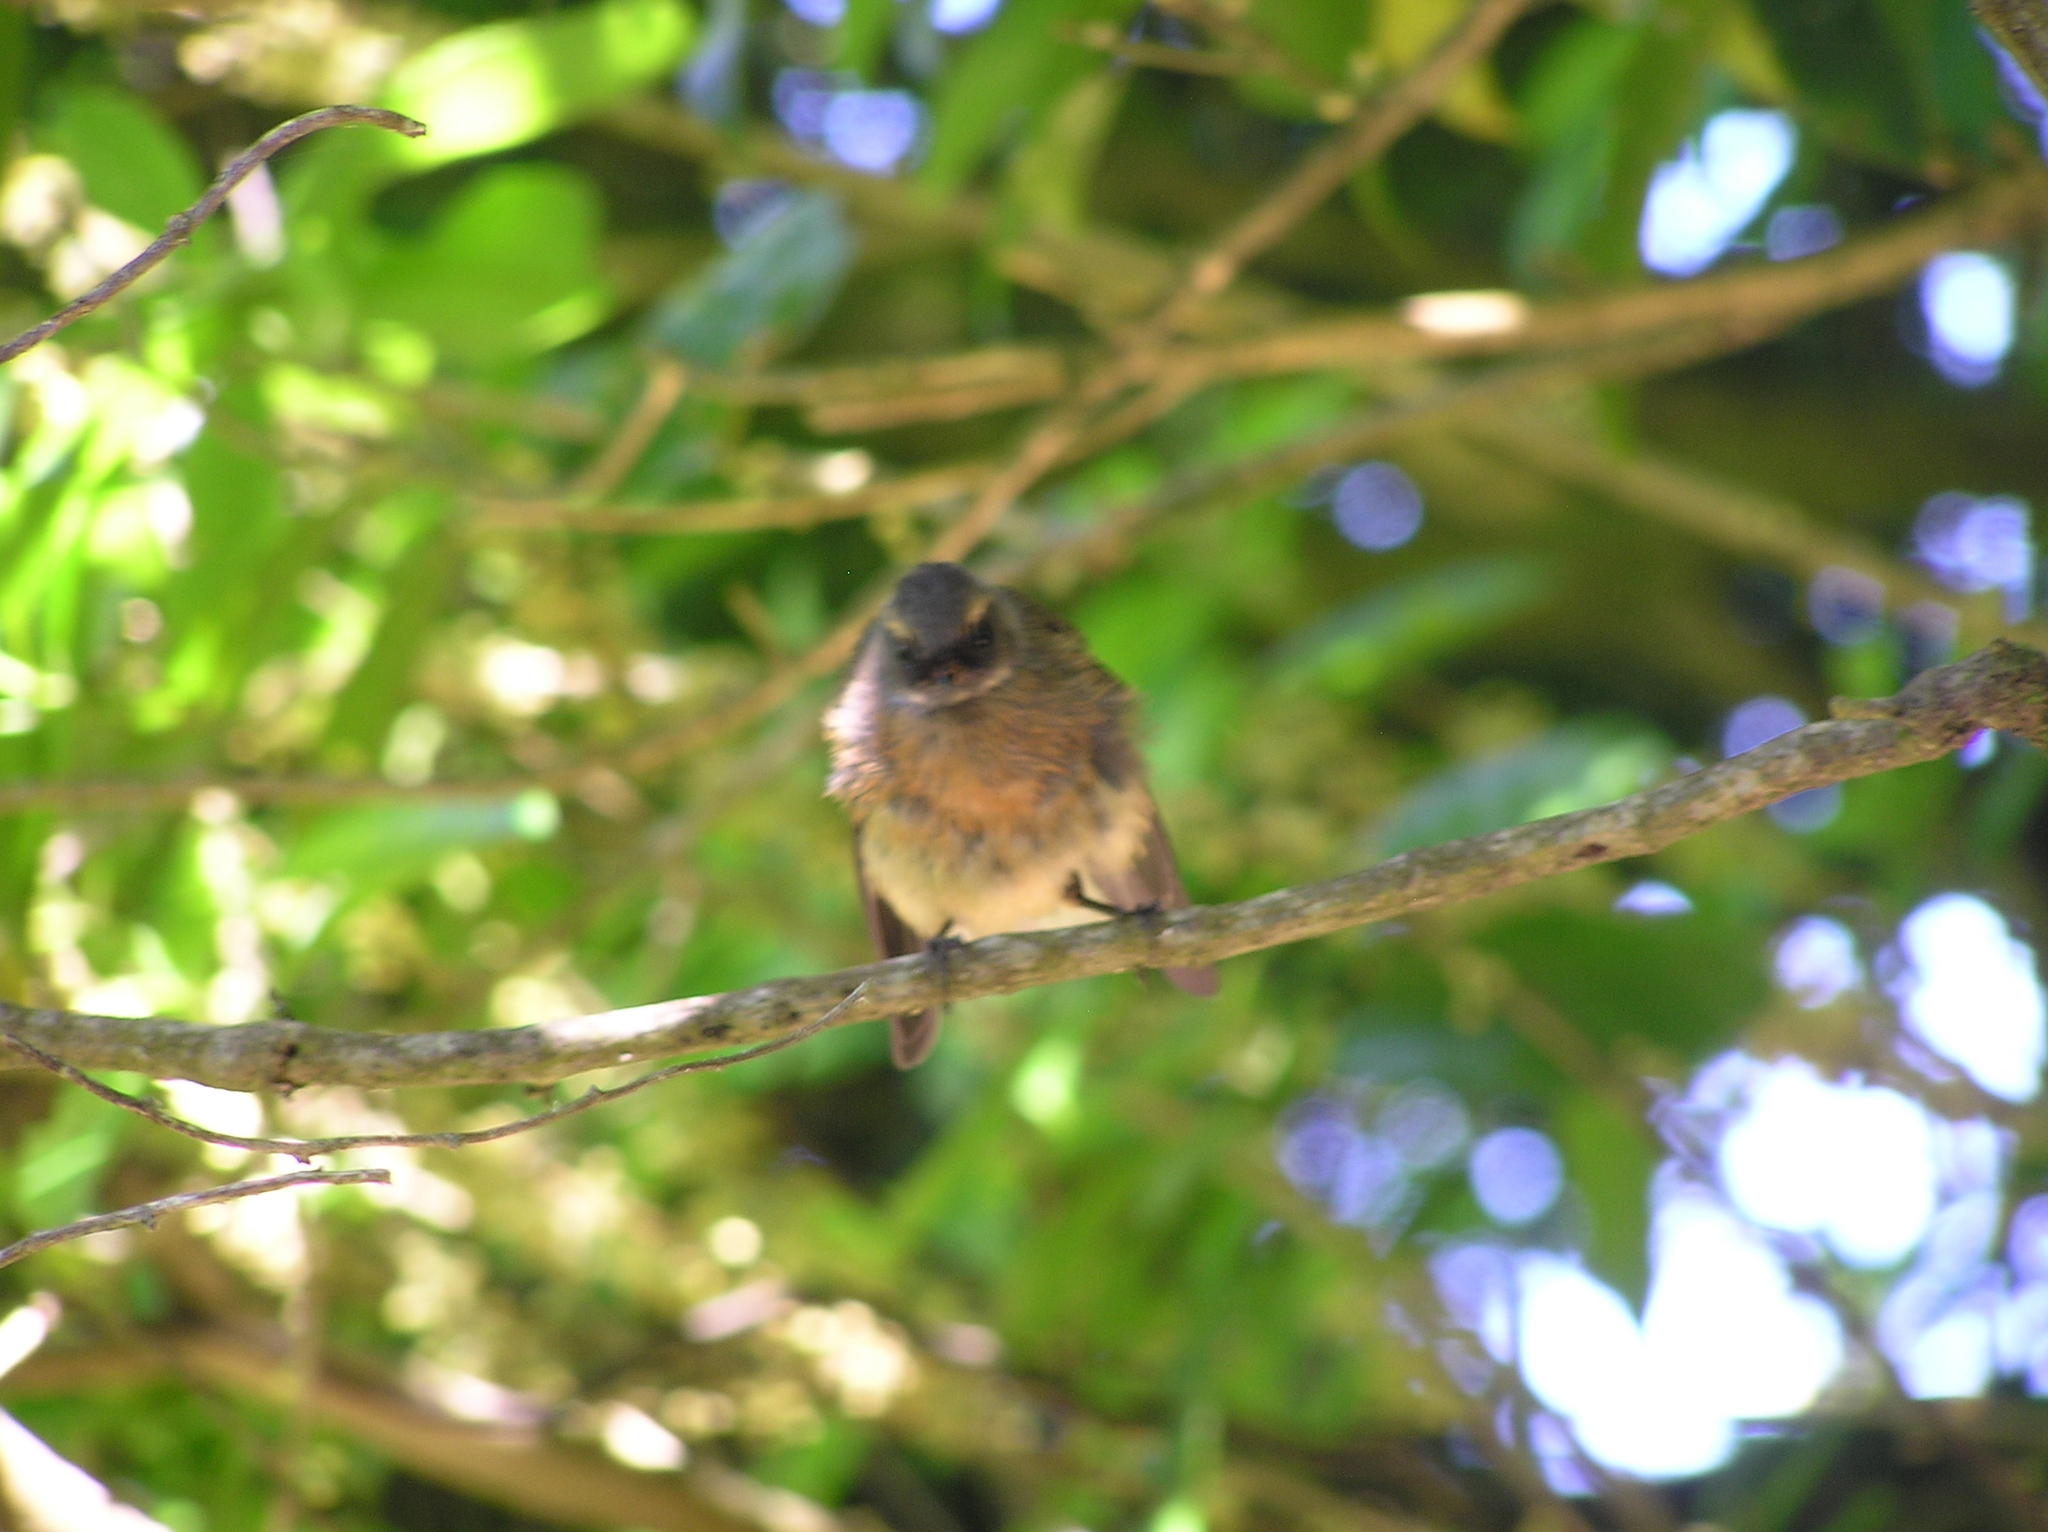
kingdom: Animalia
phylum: Chordata
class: Aves
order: Passeriformes
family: Rhipiduridae
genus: Rhipidura
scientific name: Rhipidura fuliginosa
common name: New zealand fantail
